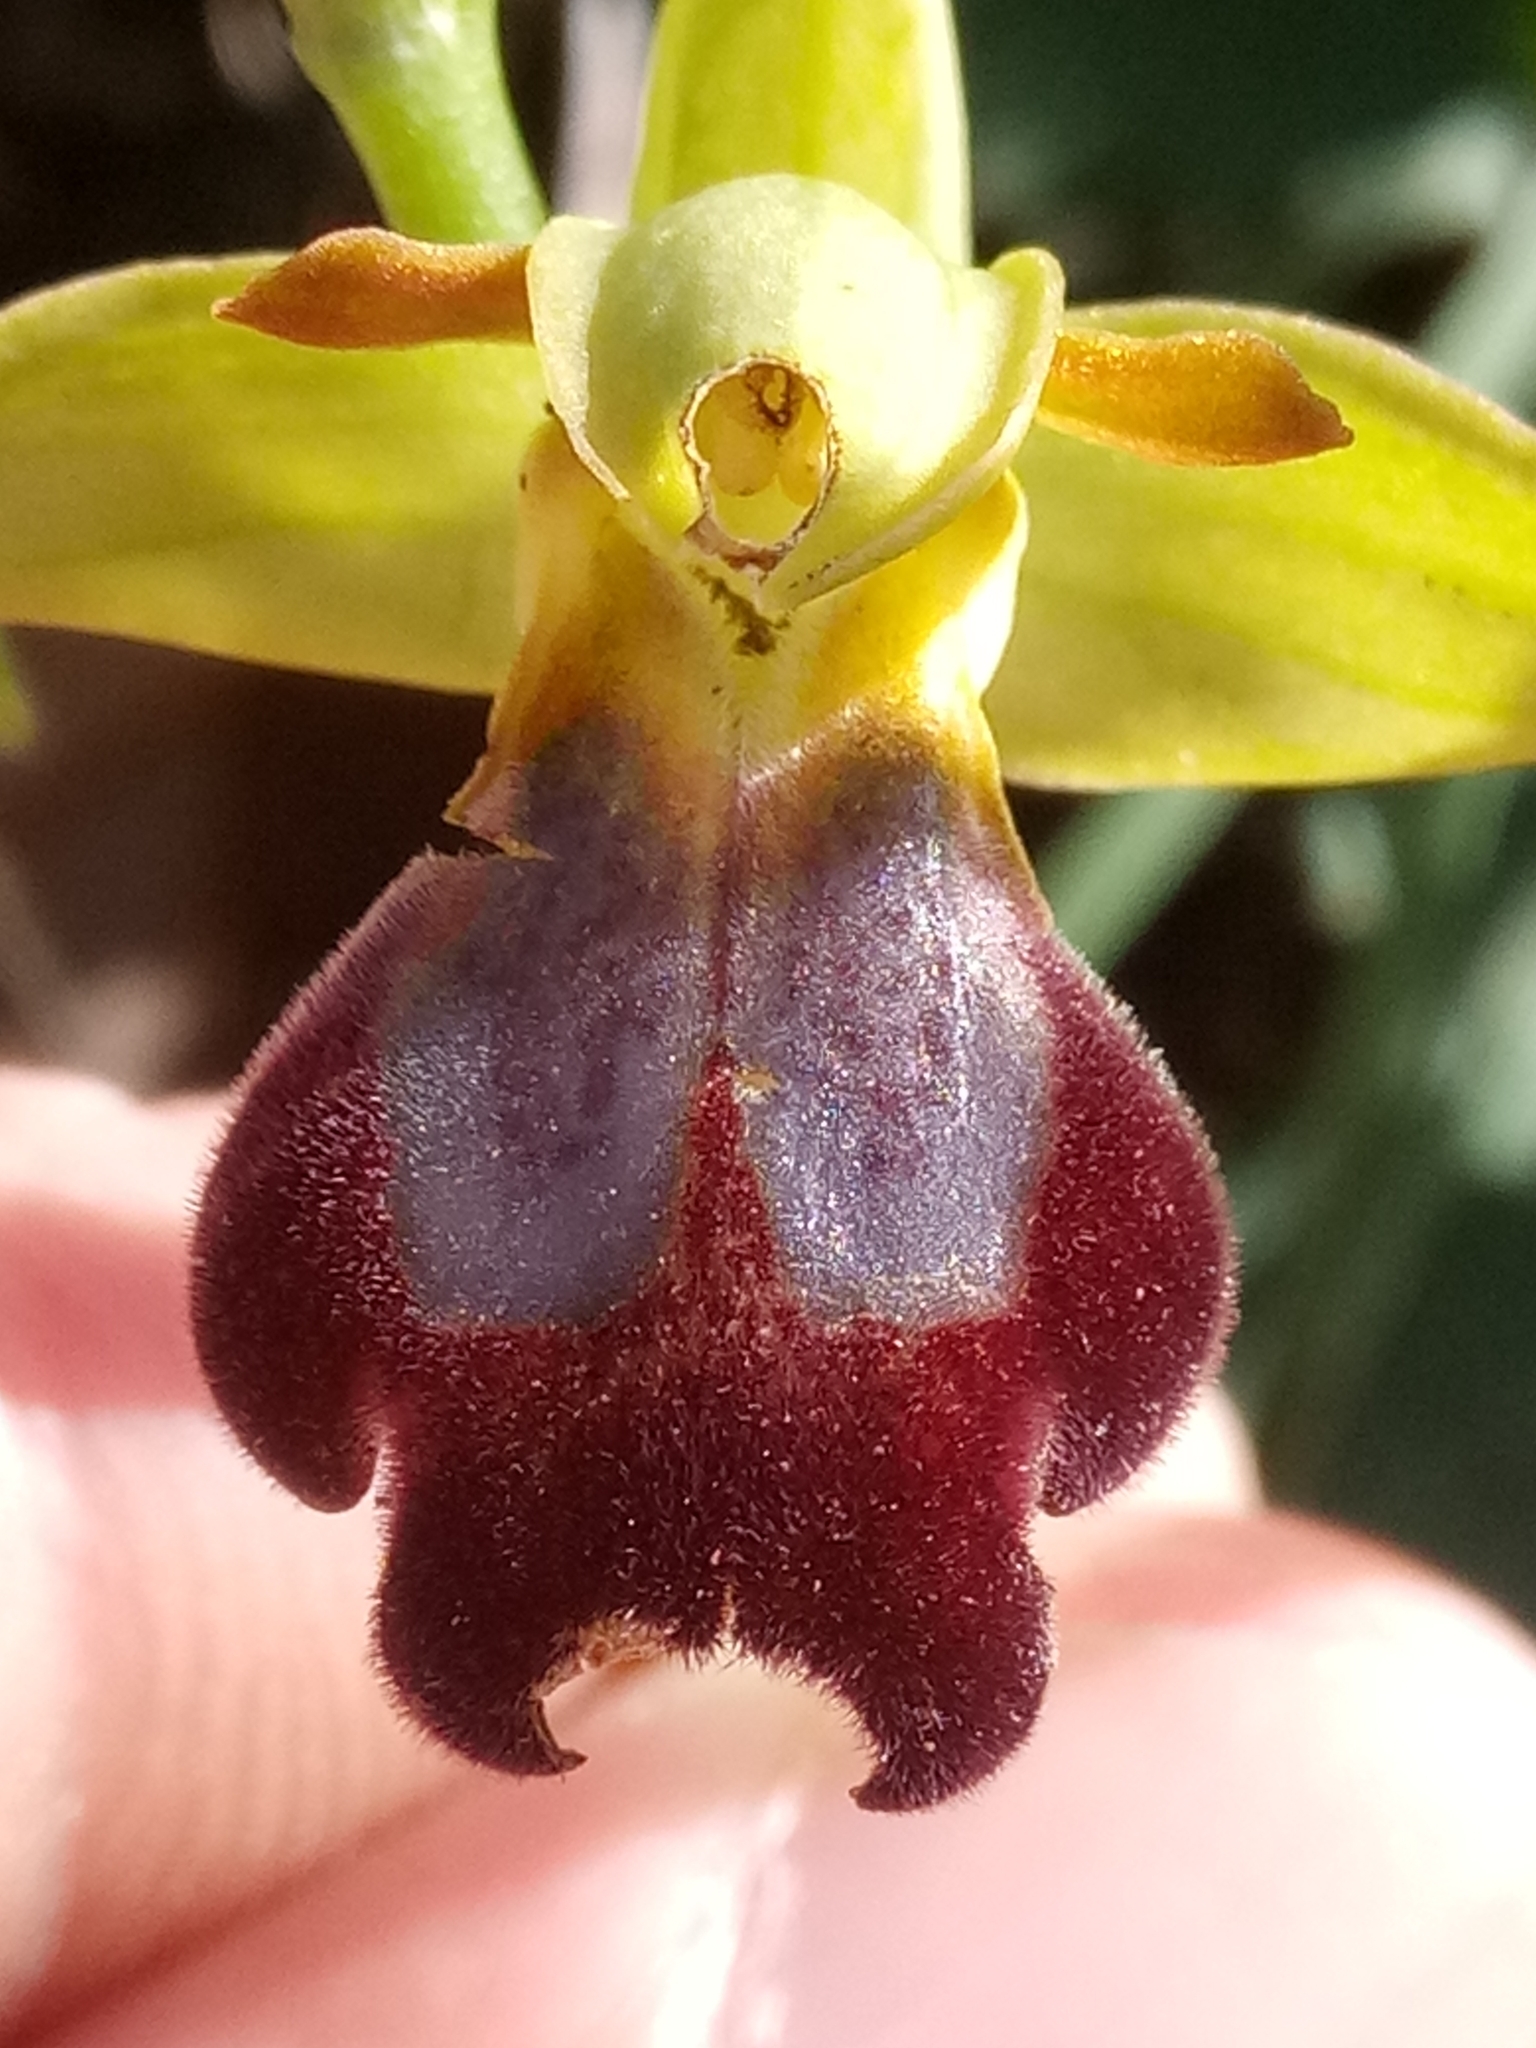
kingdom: Plantae
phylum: Tracheophyta
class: Liliopsida
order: Asparagales
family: Orchidaceae
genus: Ophrys
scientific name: Ophrys fusca
